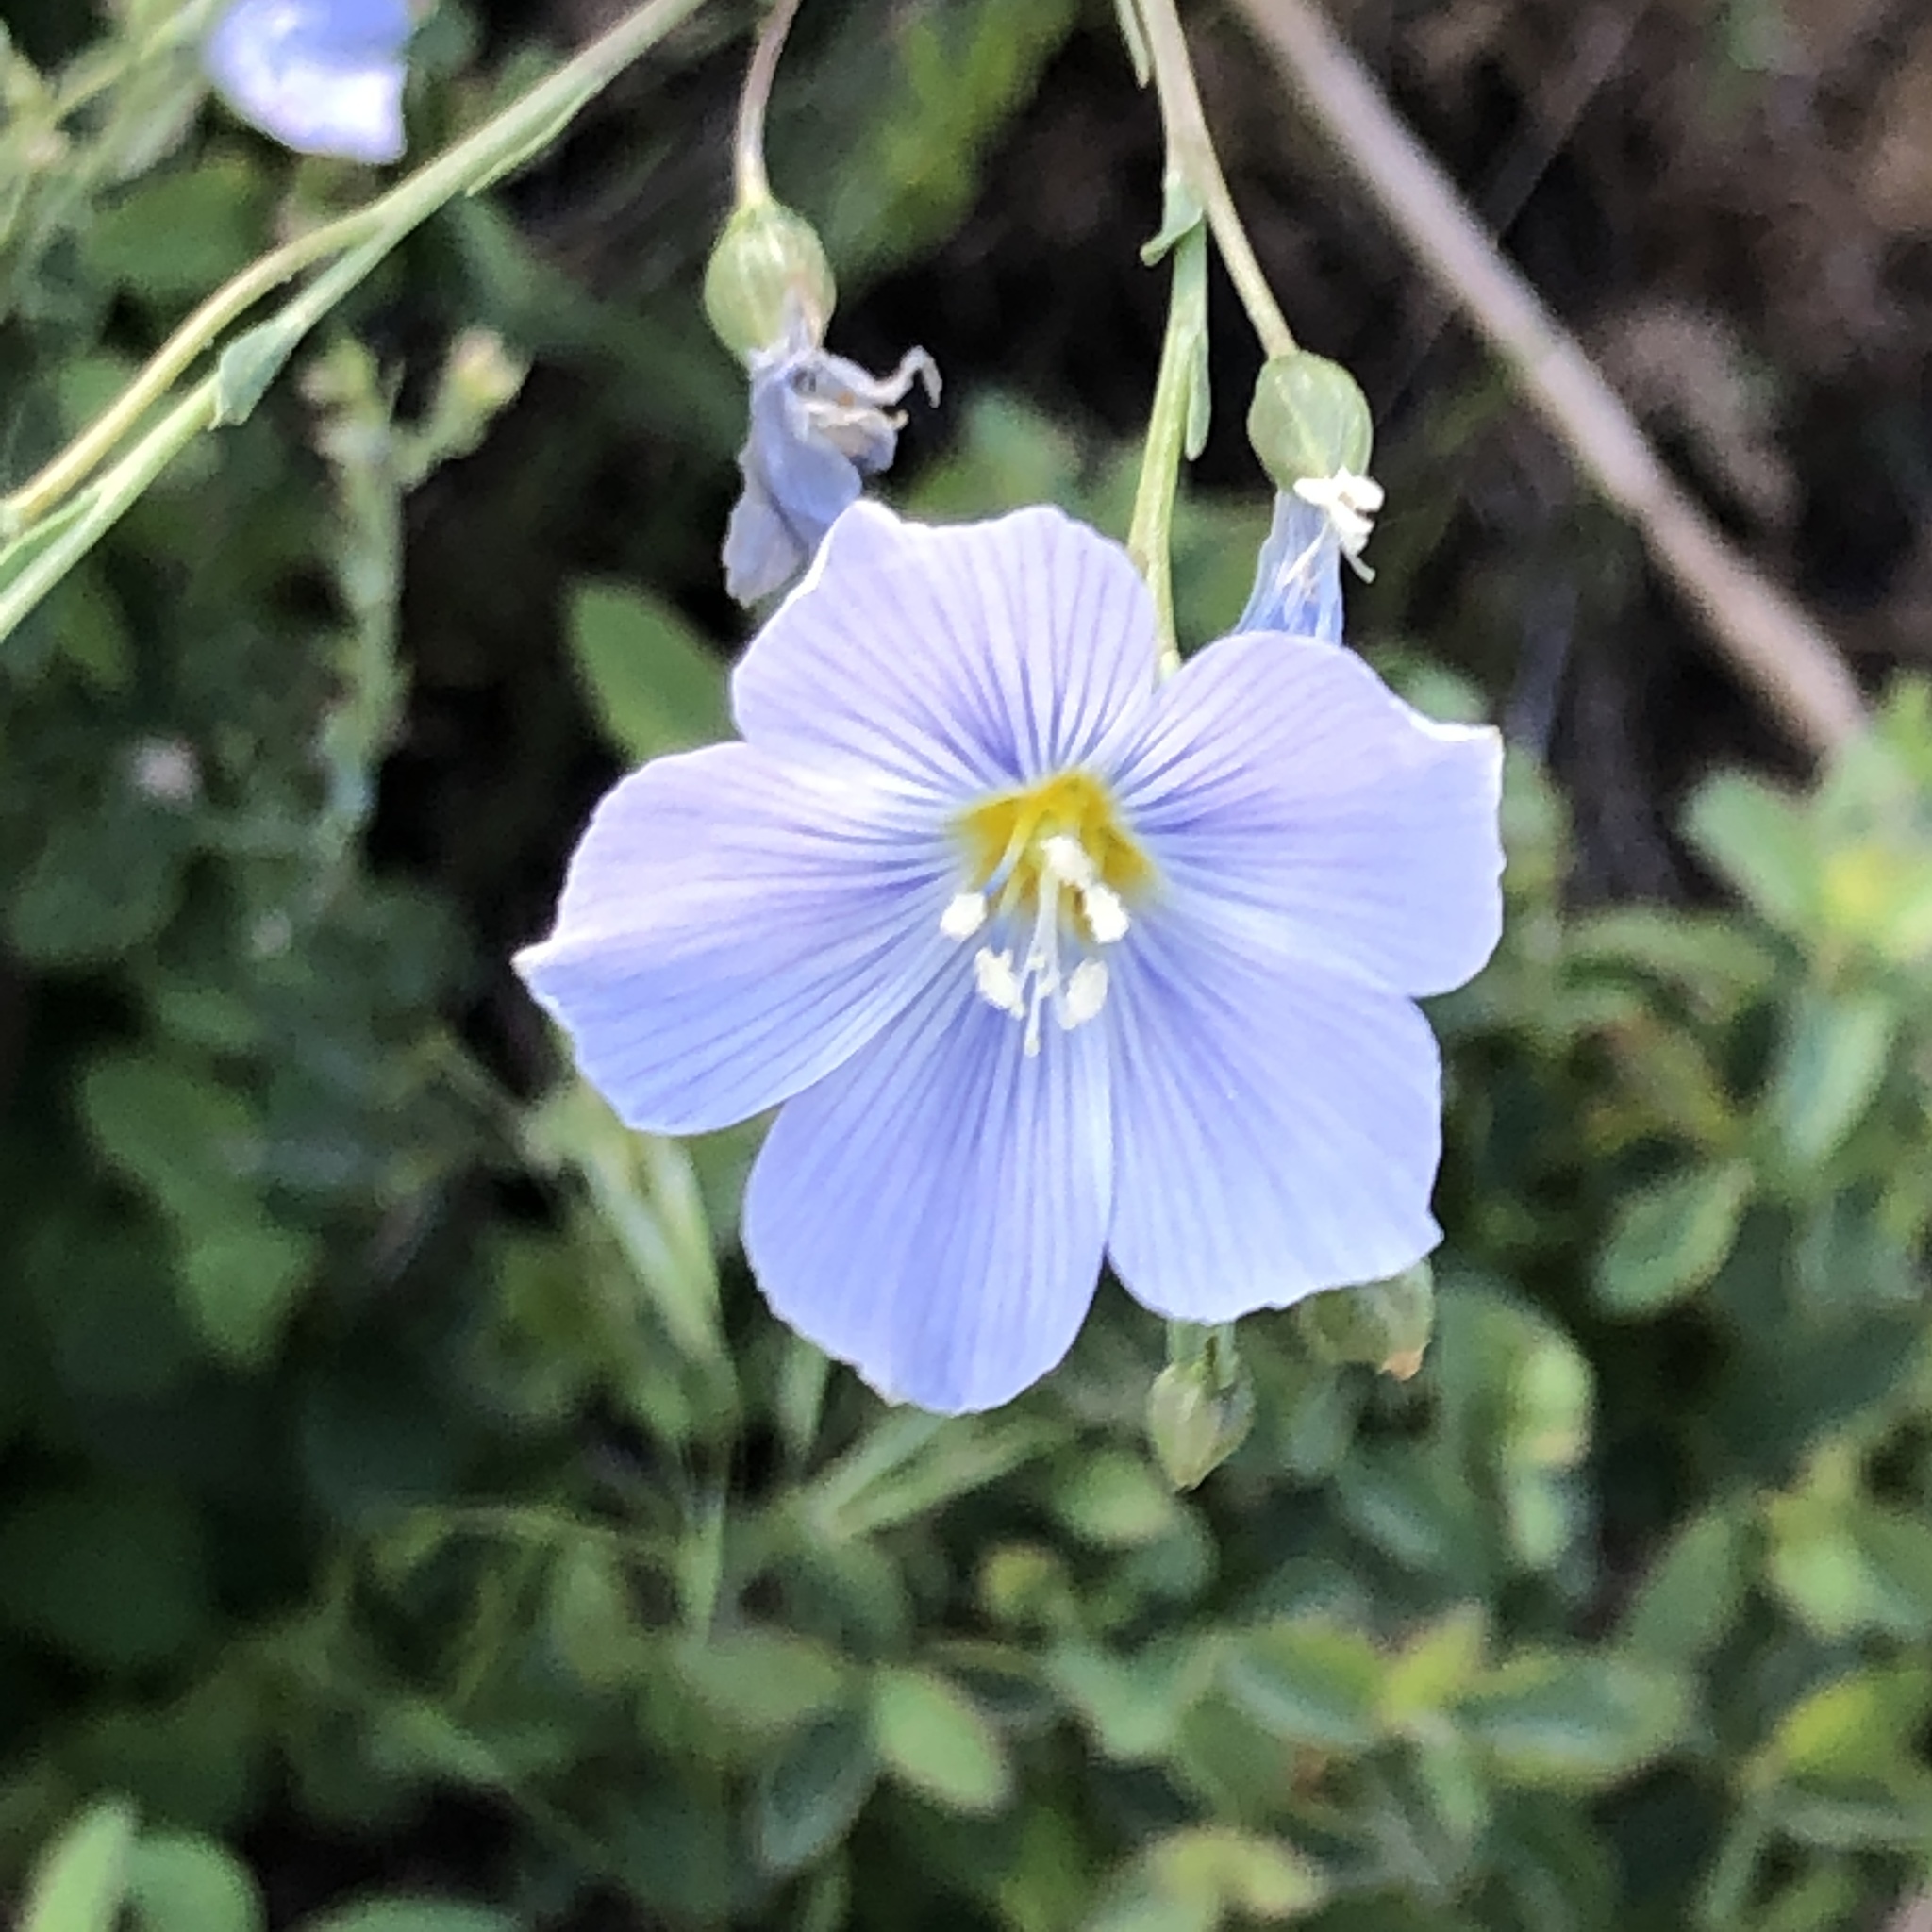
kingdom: Plantae
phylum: Tracheophyta
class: Magnoliopsida
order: Malpighiales
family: Linaceae
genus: Linum
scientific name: Linum lewisii
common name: Prairie flax
